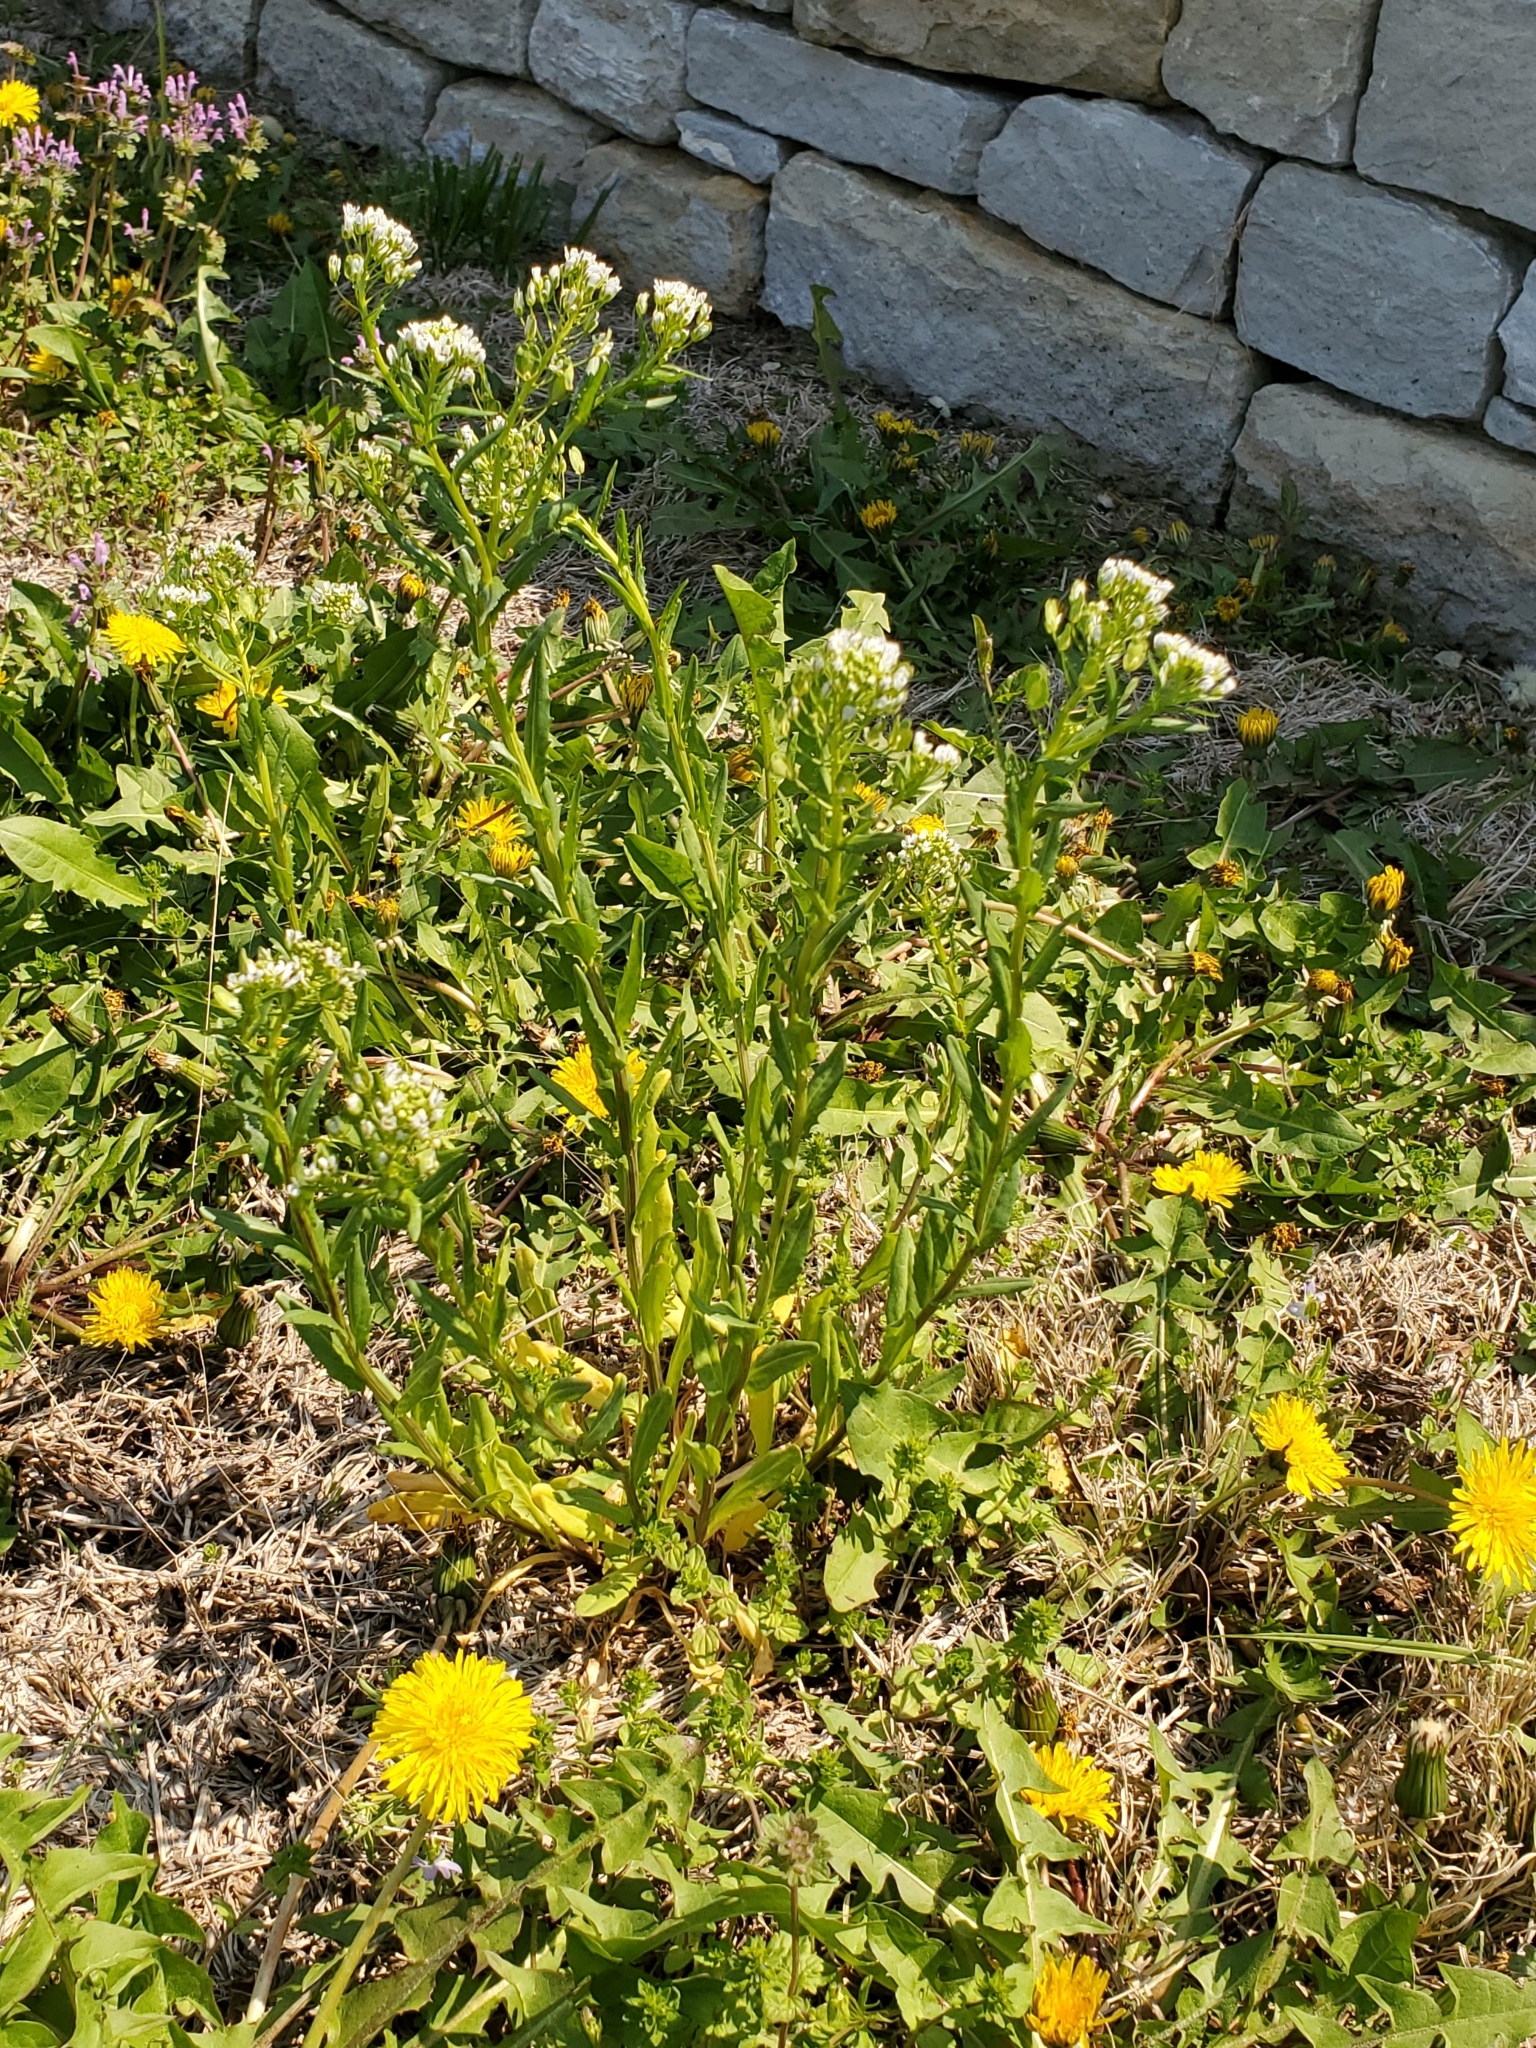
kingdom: Plantae
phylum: Tracheophyta
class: Magnoliopsida
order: Brassicales
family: Brassicaceae
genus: Thlaspi
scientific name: Thlaspi arvense
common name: Field pennycress
